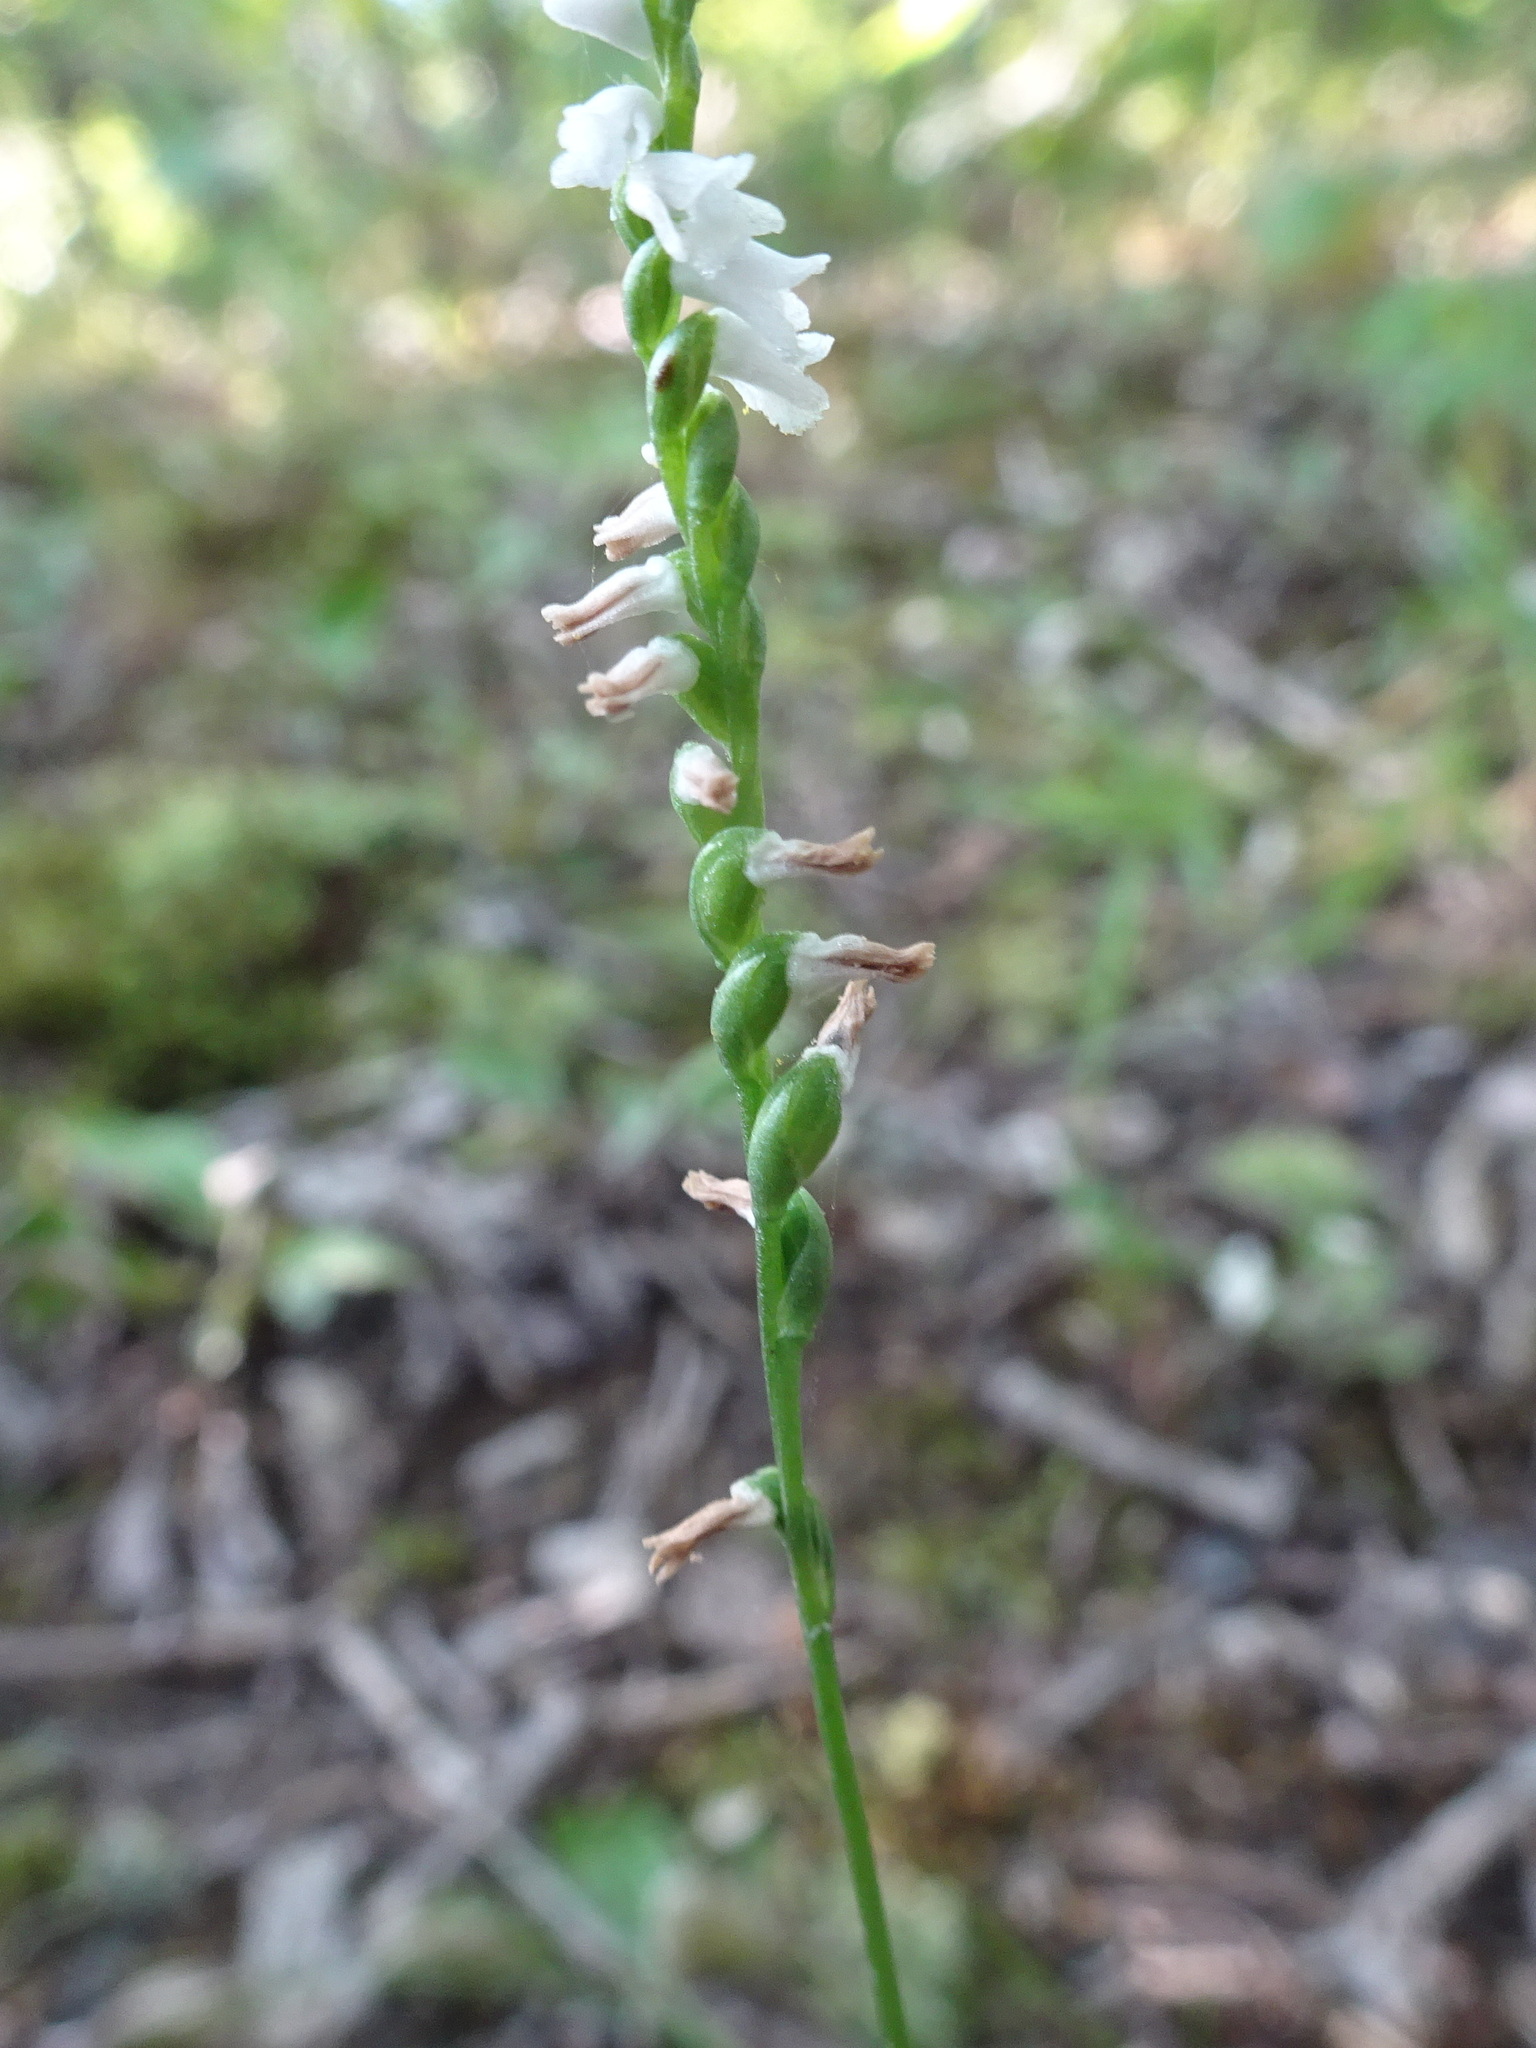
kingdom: Plantae
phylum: Tracheophyta
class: Liliopsida
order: Asparagales
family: Orchidaceae
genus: Spiranthes
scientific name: Spiranthes tuberosa
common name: Little ladies'-tresses
